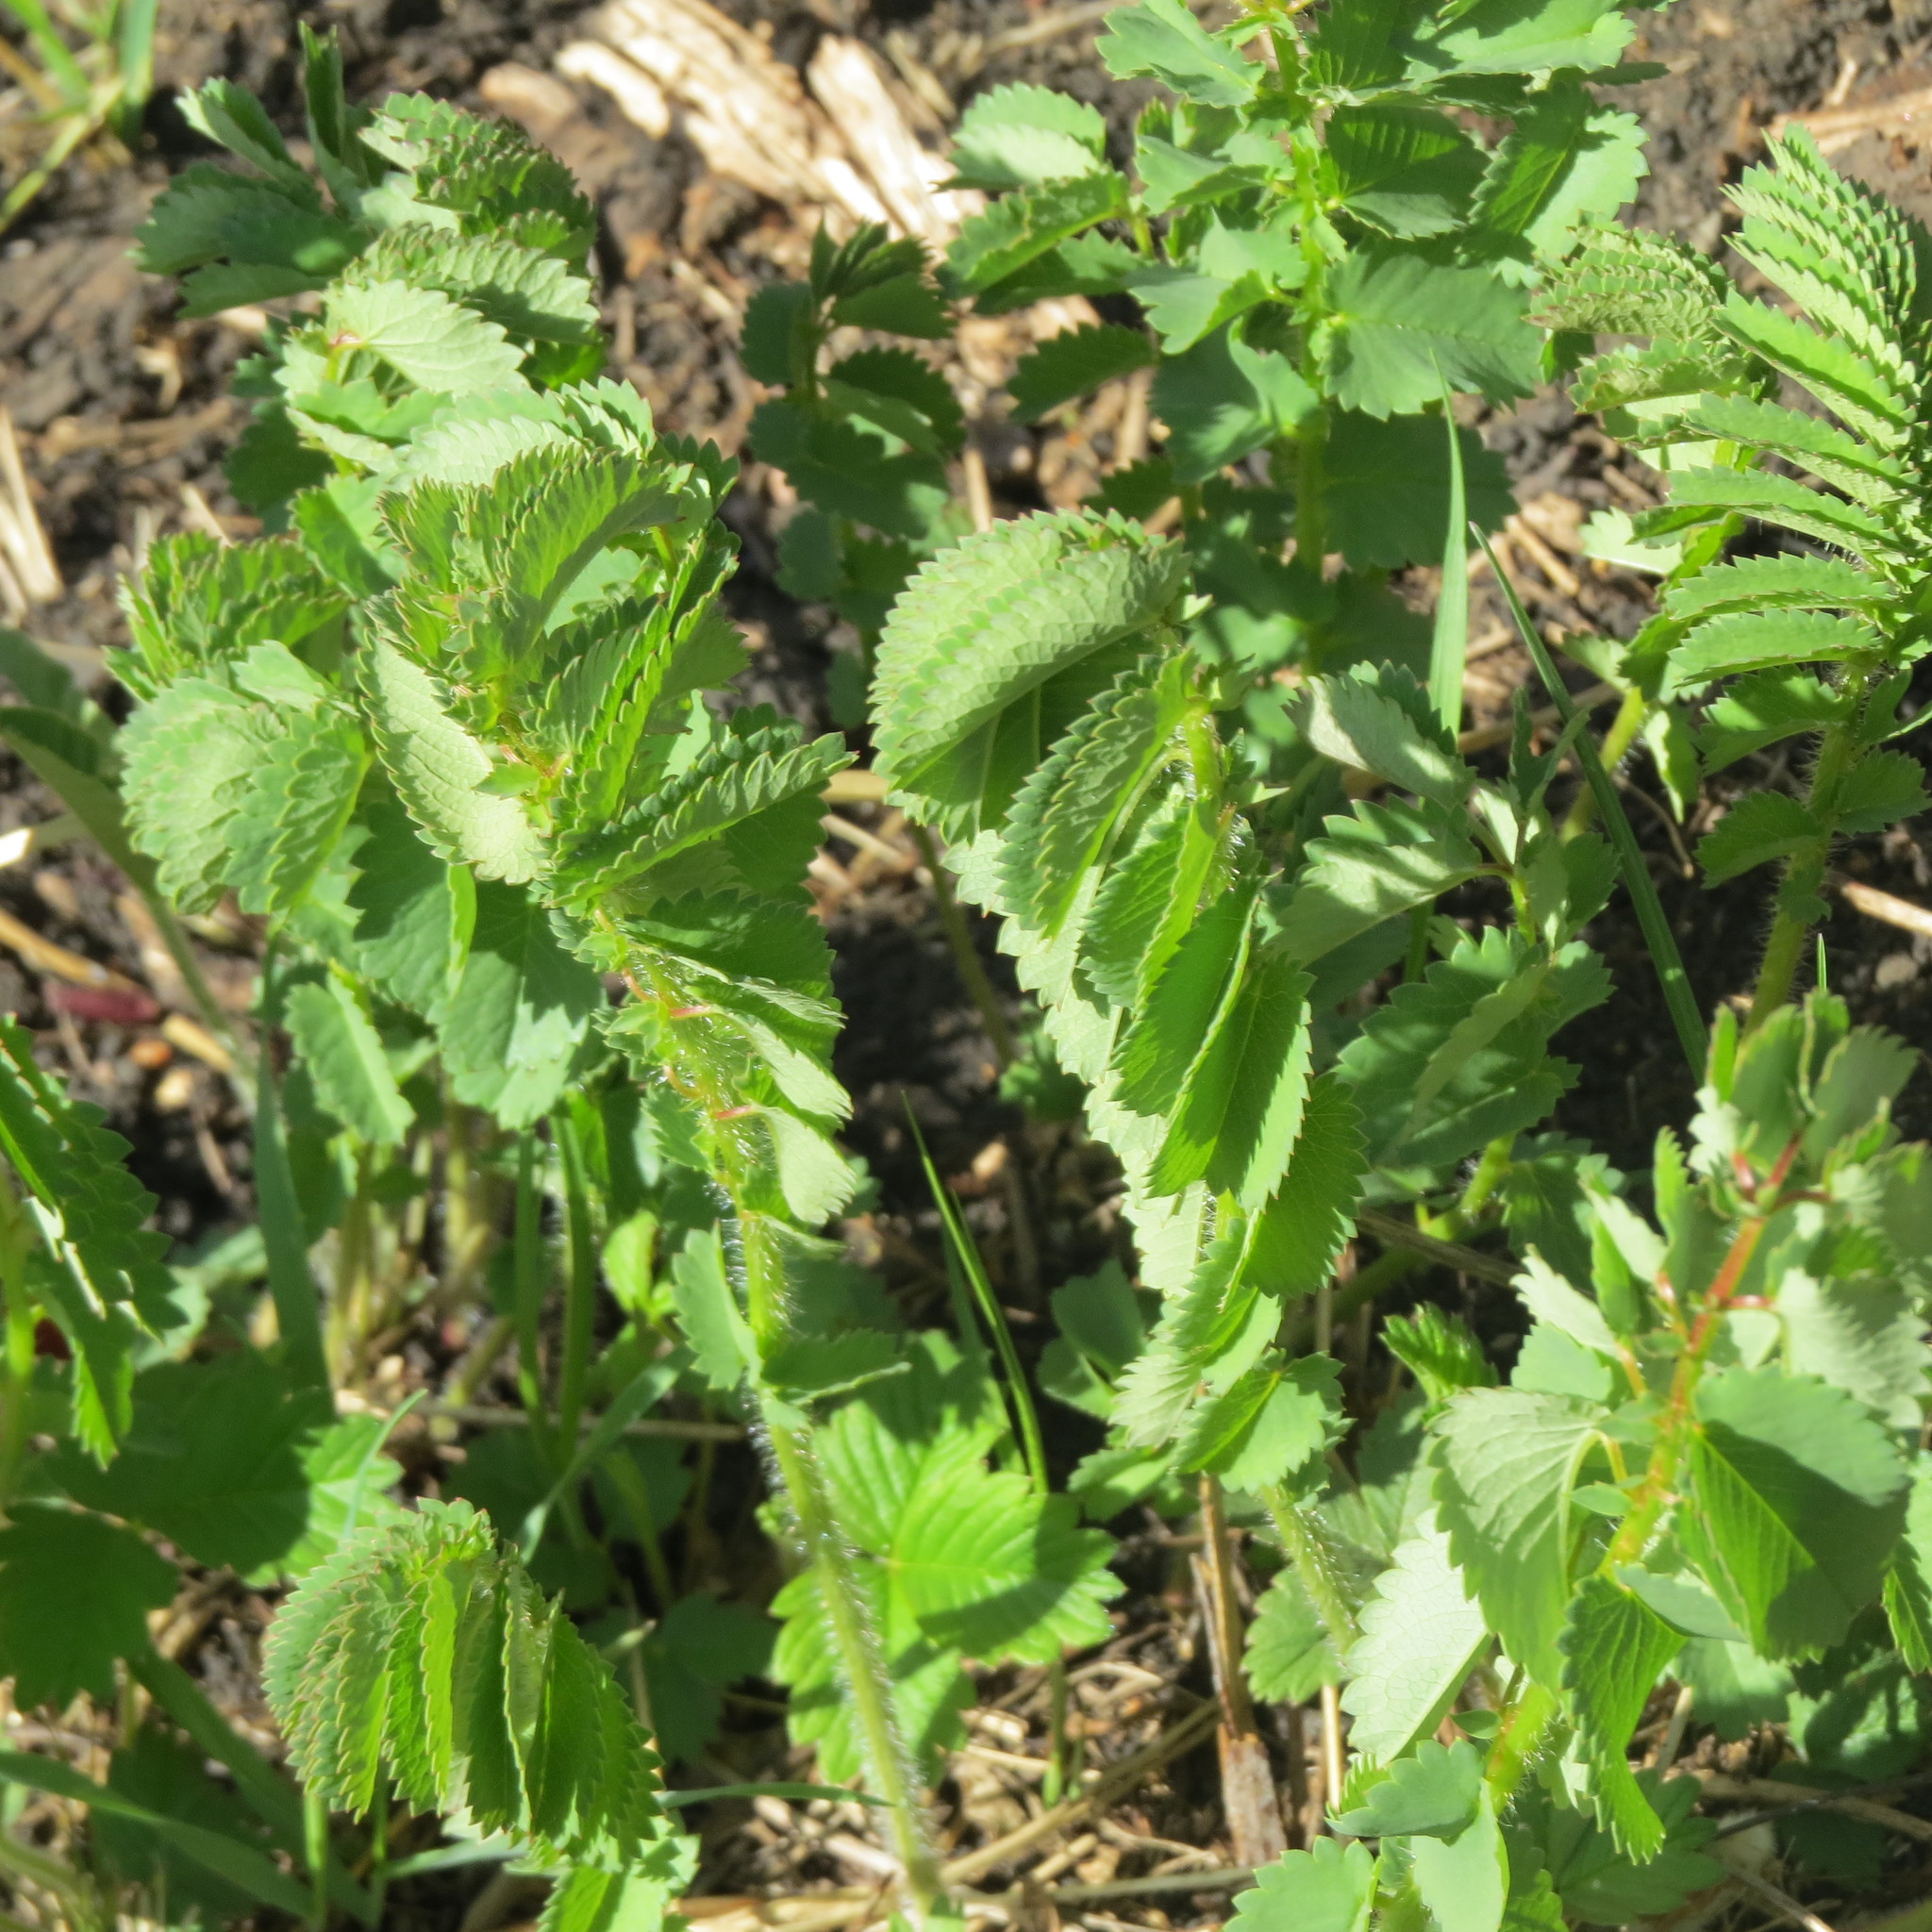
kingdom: Plantae
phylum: Tracheophyta
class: Magnoliopsida
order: Rosales
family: Rosaceae
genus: Sanguisorba
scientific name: Sanguisorba officinalis
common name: Great burnet
